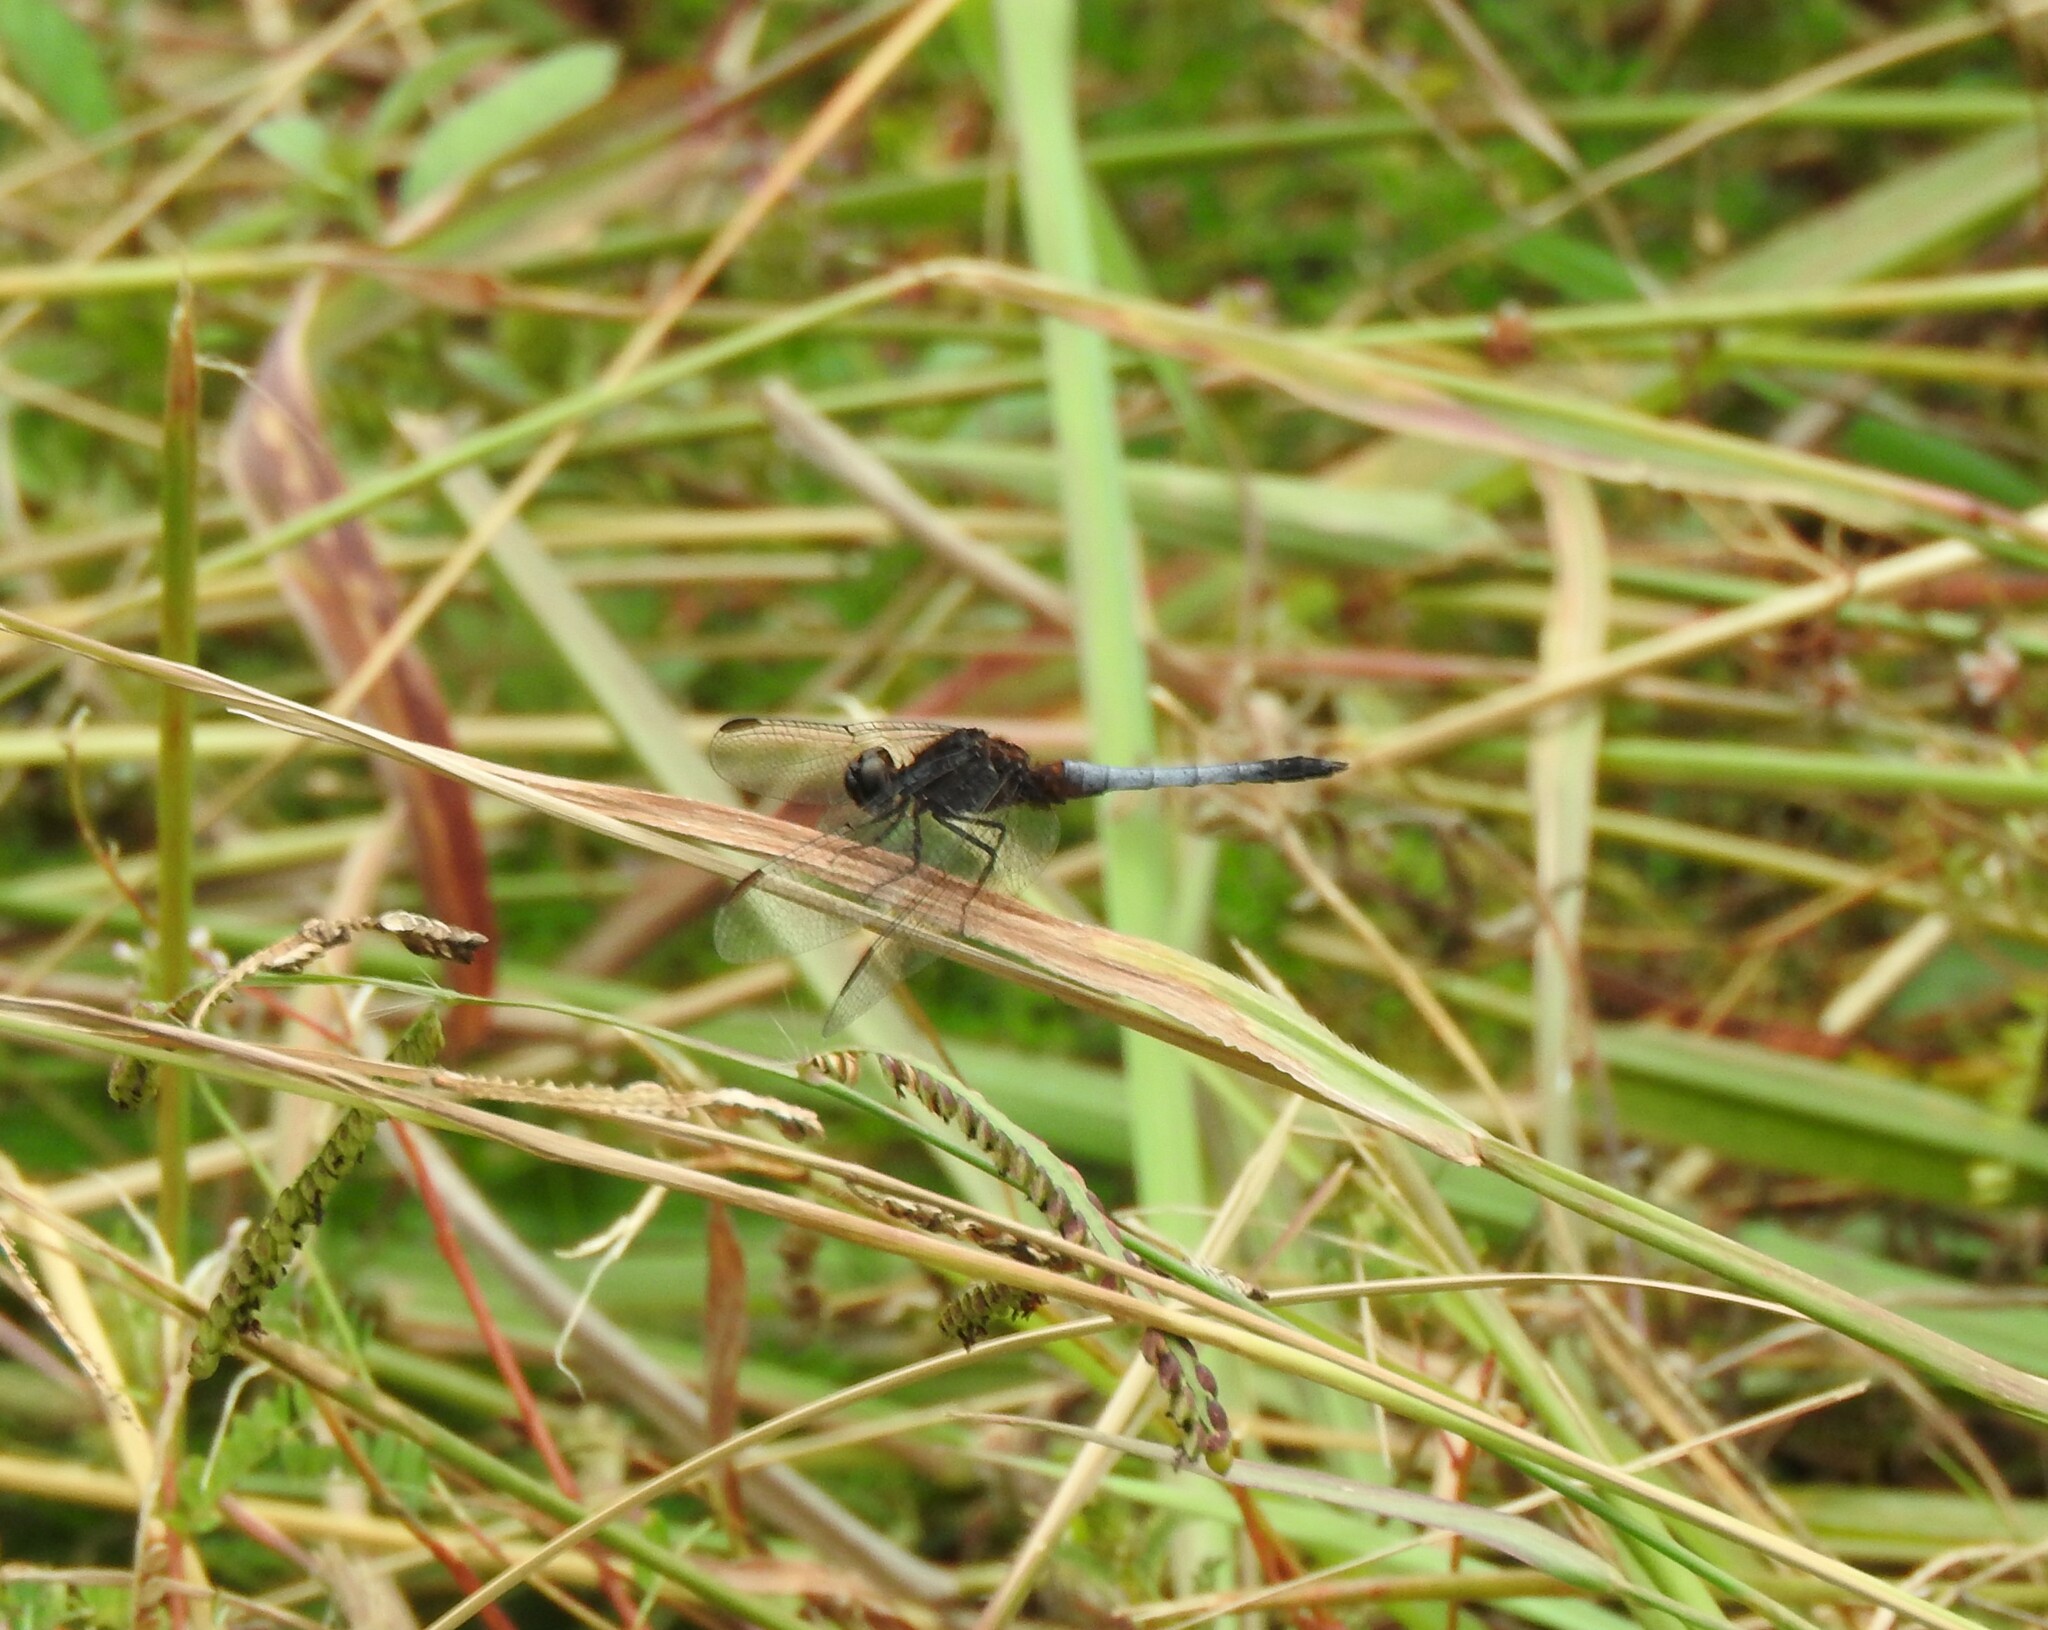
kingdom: Animalia
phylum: Arthropoda
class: Insecta
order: Odonata
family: Libellulidae
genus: Erythrodiplax
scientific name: Erythrodiplax basifusca
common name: Plateau dragonlet
